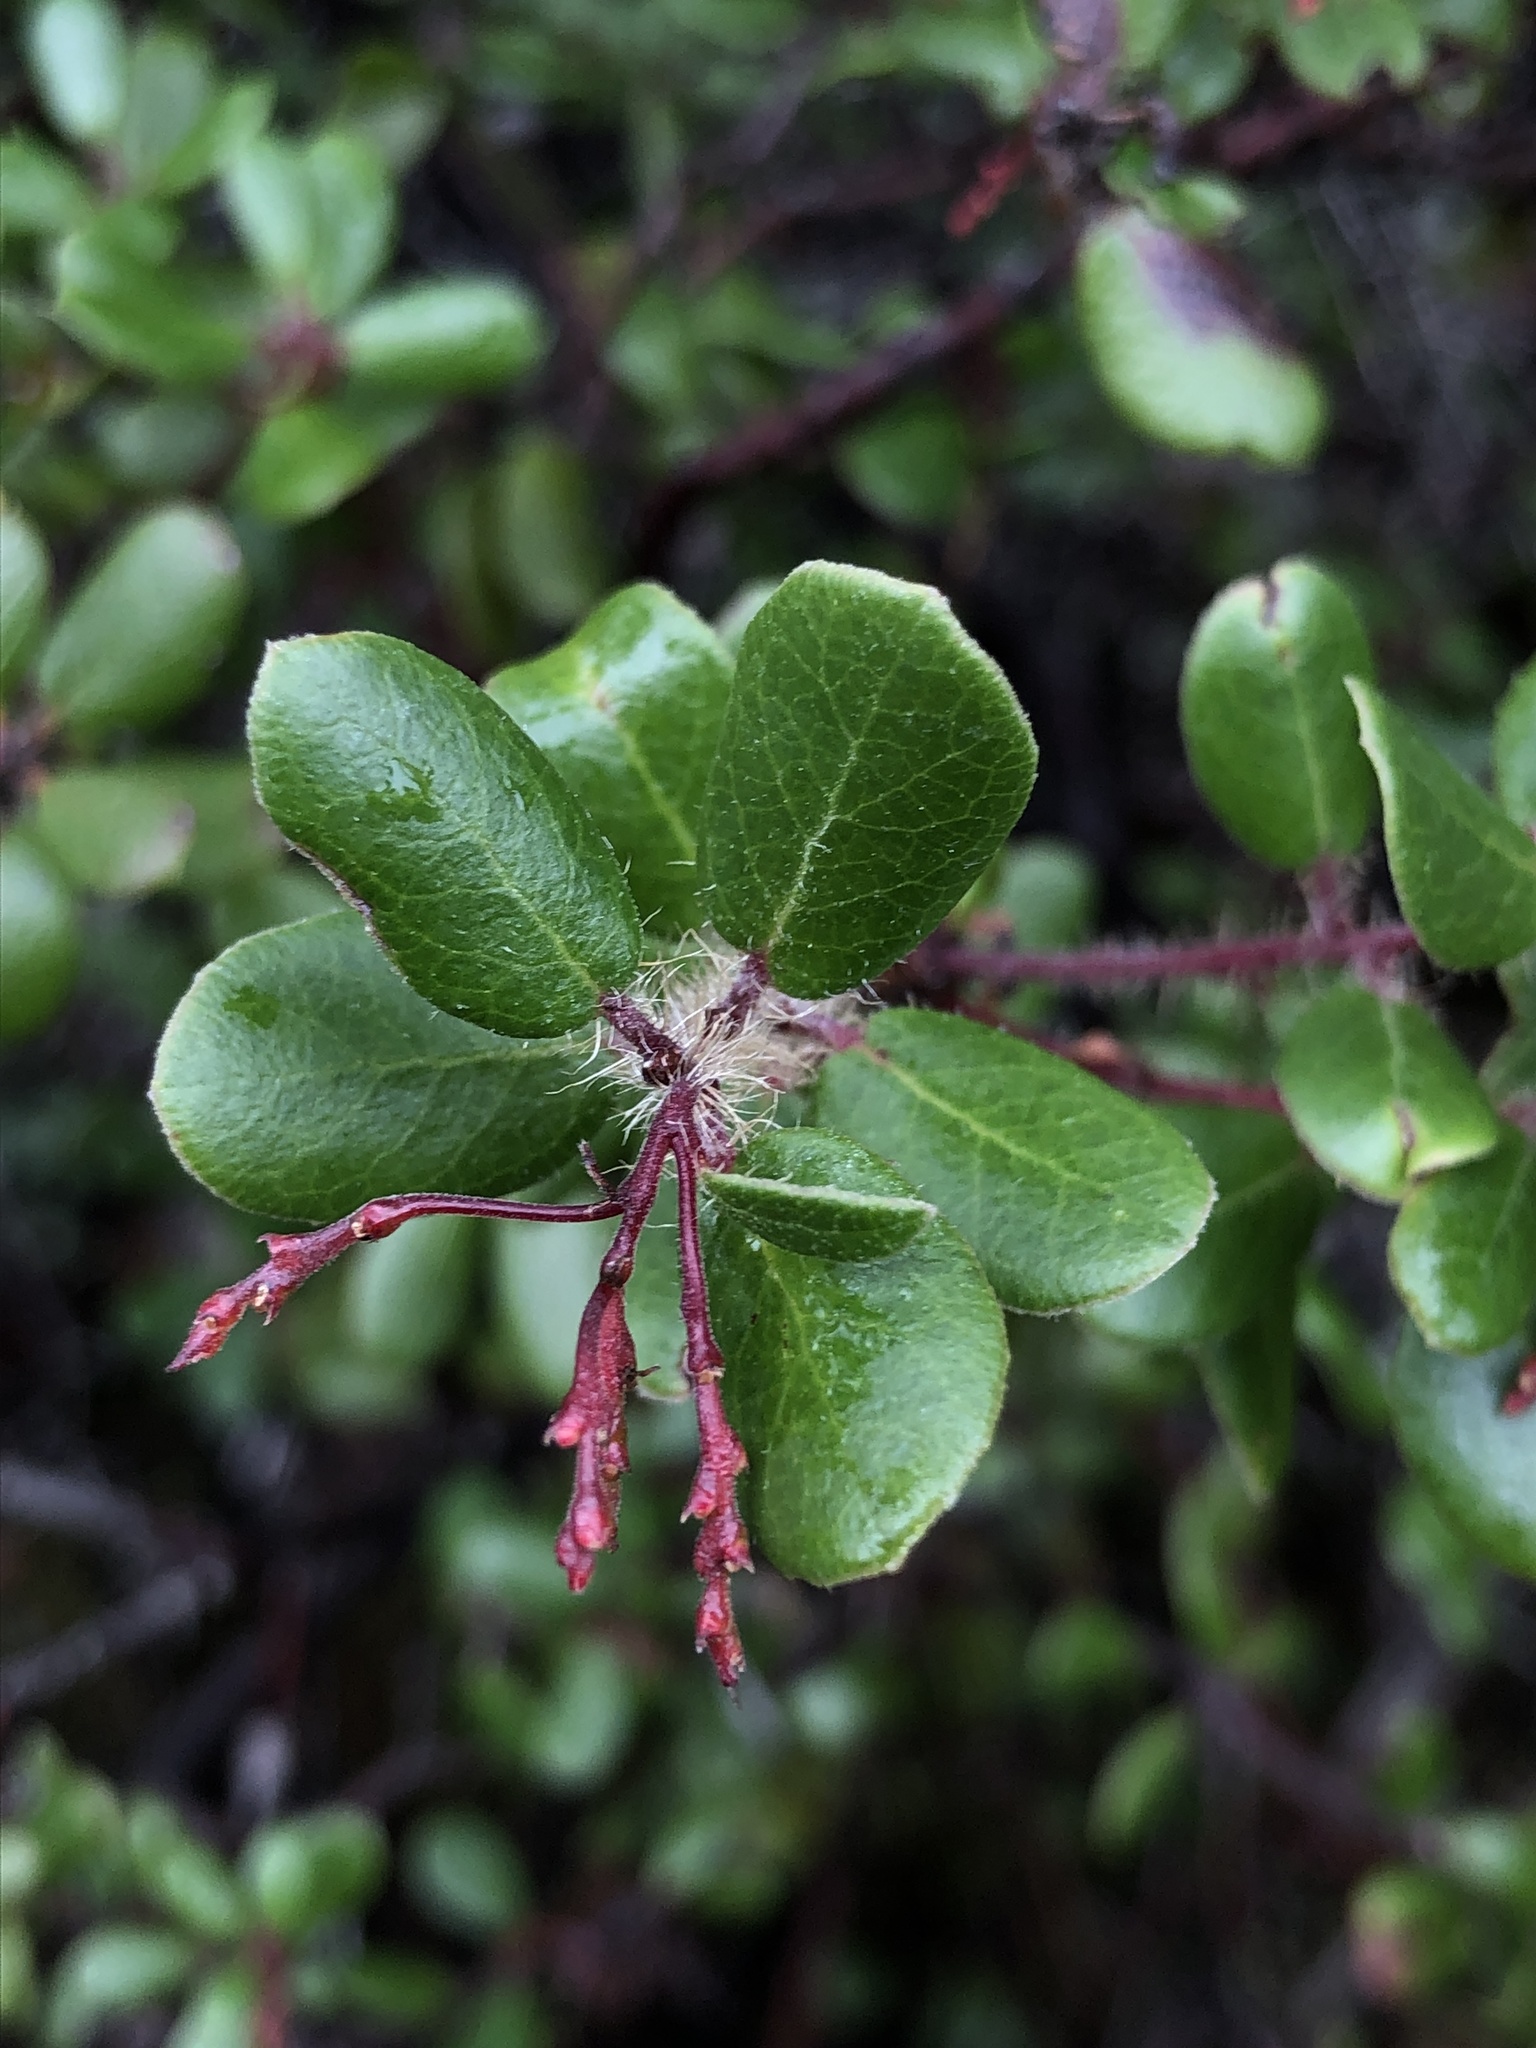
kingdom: Plantae
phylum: Tracheophyta
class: Magnoliopsida
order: Ericales
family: Ericaceae
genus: Arctostaphylos
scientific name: Arctostaphylos nummularia
